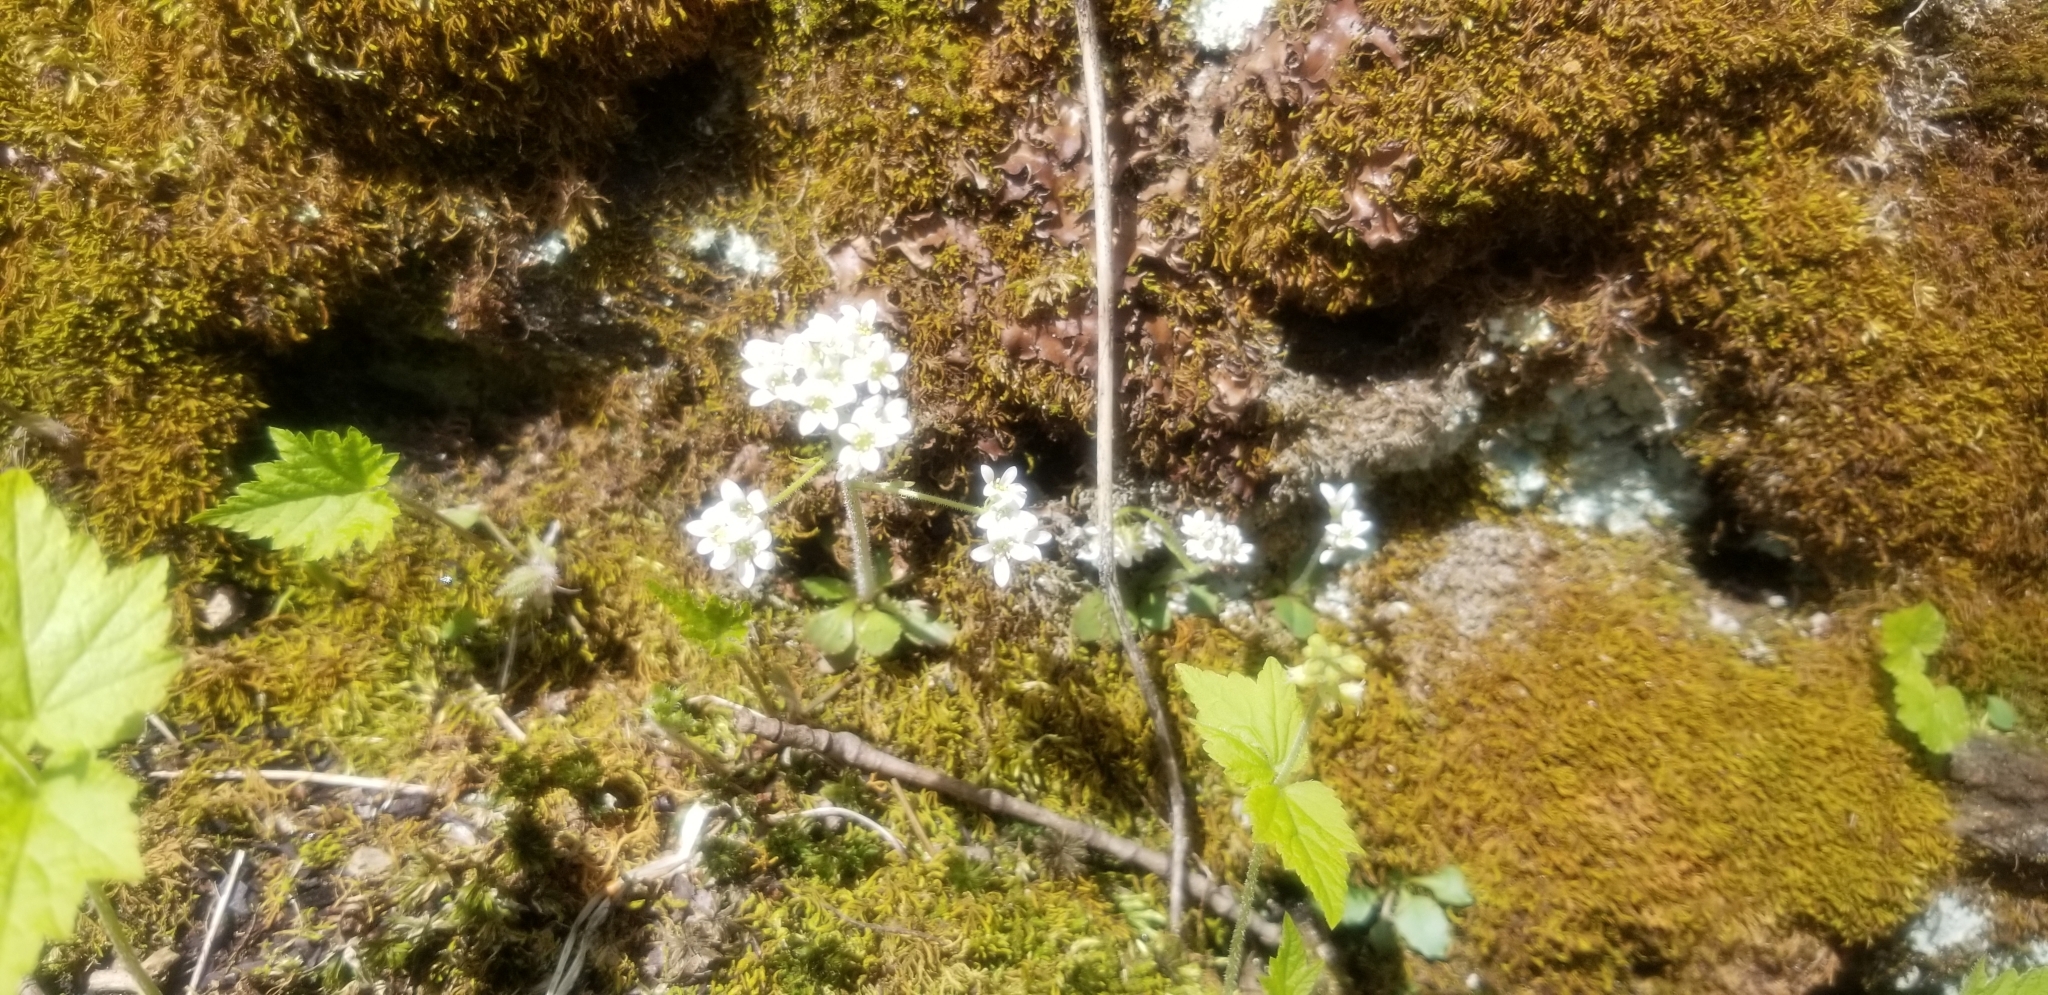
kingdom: Plantae
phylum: Tracheophyta
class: Magnoliopsida
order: Saxifragales
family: Saxifragaceae
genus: Micranthes
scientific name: Micranthes virginiensis
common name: Early saxifrage
